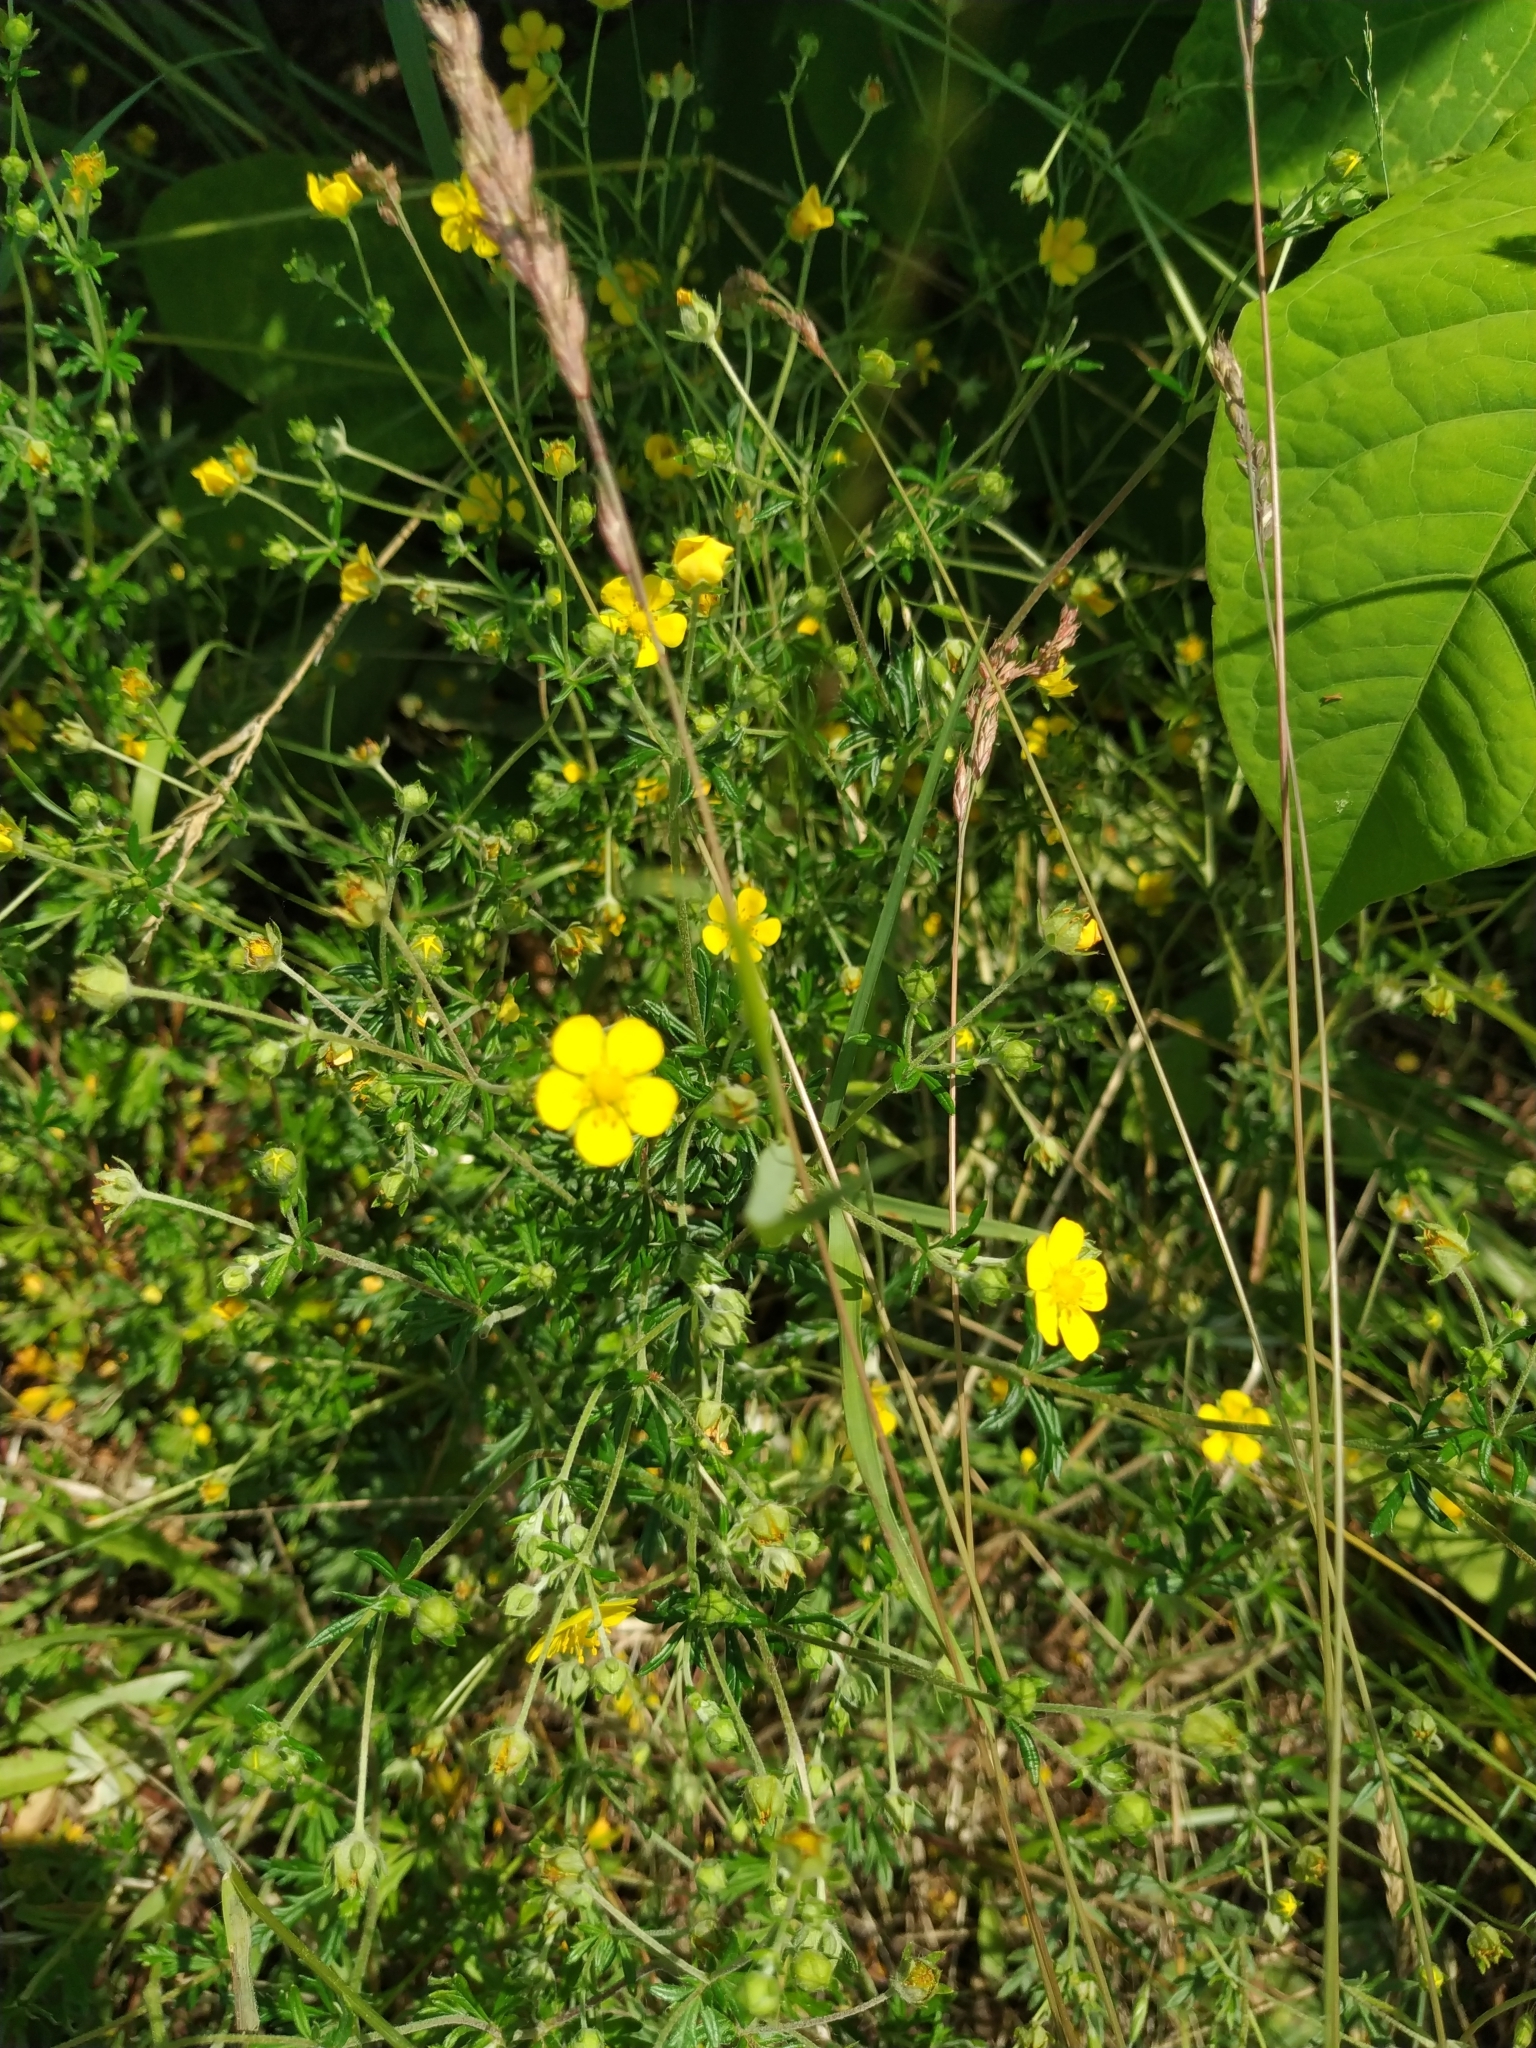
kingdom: Plantae
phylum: Tracheophyta
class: Magnoliopsida
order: Rosales
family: Rosaceae
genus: Potentilla
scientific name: Potentilla argentea
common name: Hoary cinquefoil
